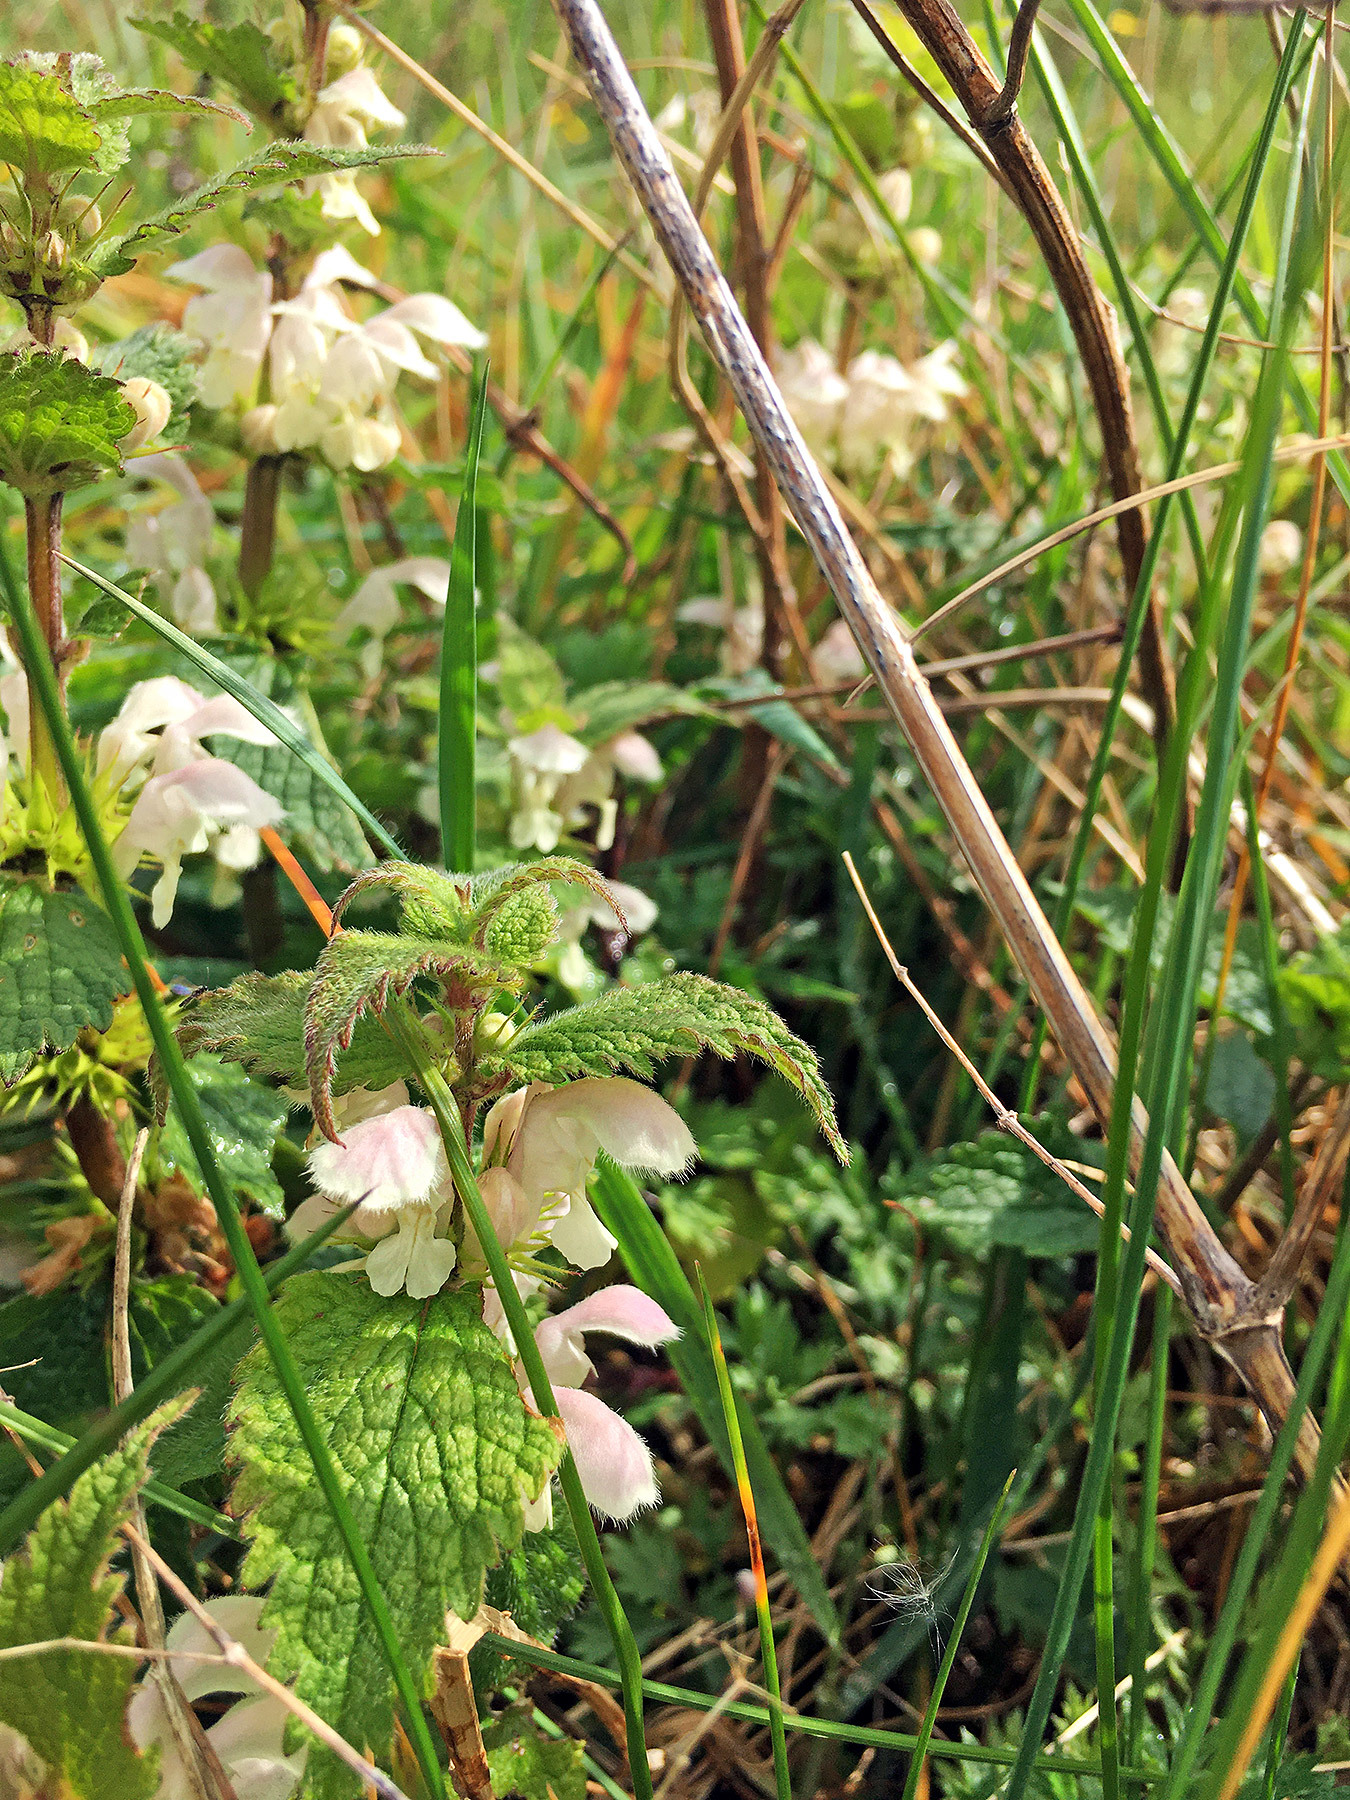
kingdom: Plantae
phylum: Tracheophyta
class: Magnoliopsida
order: Lamiales
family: Lamiaceae
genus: Lamium
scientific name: Lamium album
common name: White dead-nettle
